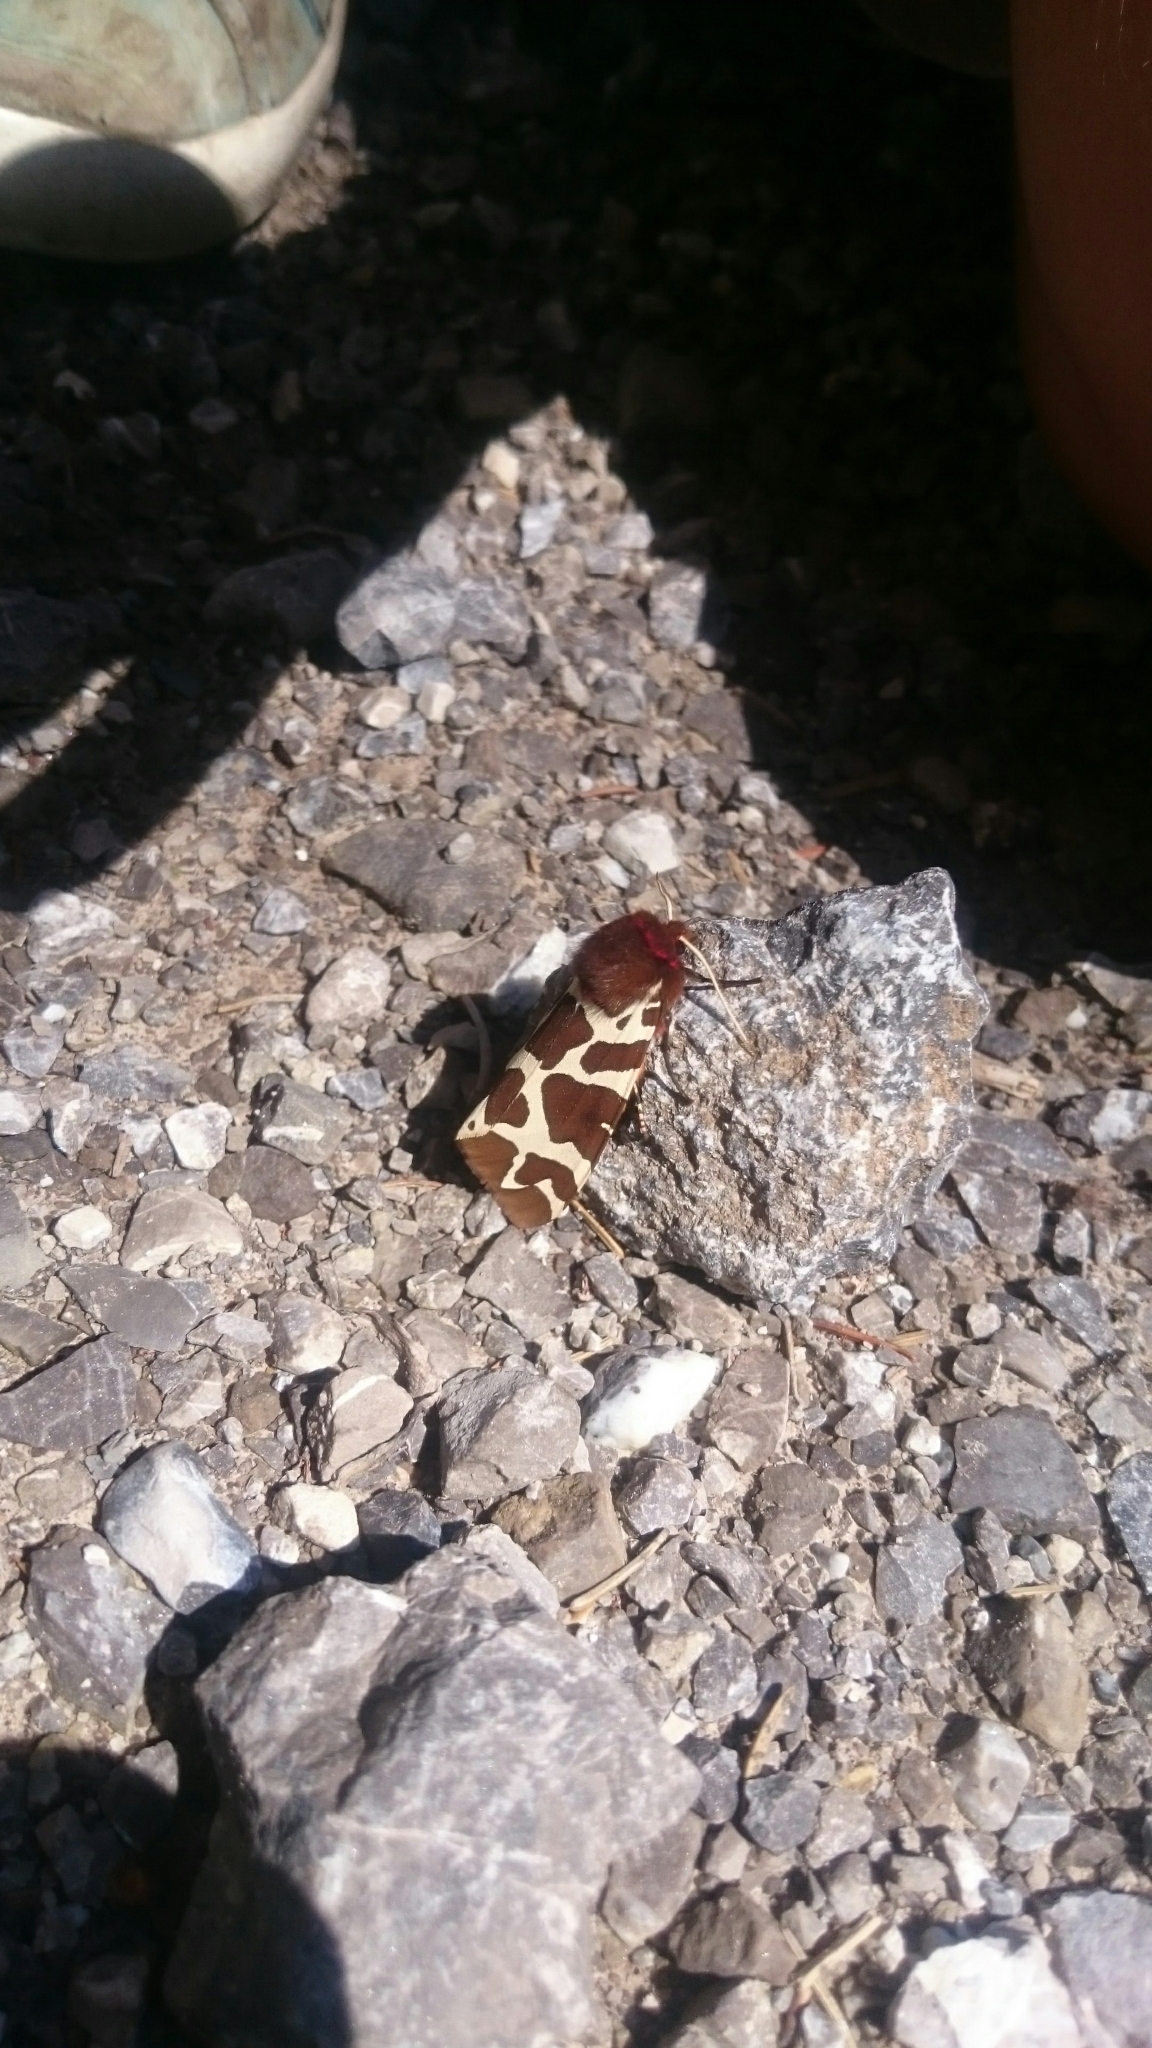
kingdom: Animalia
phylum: Arthropoda
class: Insecta
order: Lepidoptera
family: Erebidae
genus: Arctia
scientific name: Arctia caja
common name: Garden tiger
